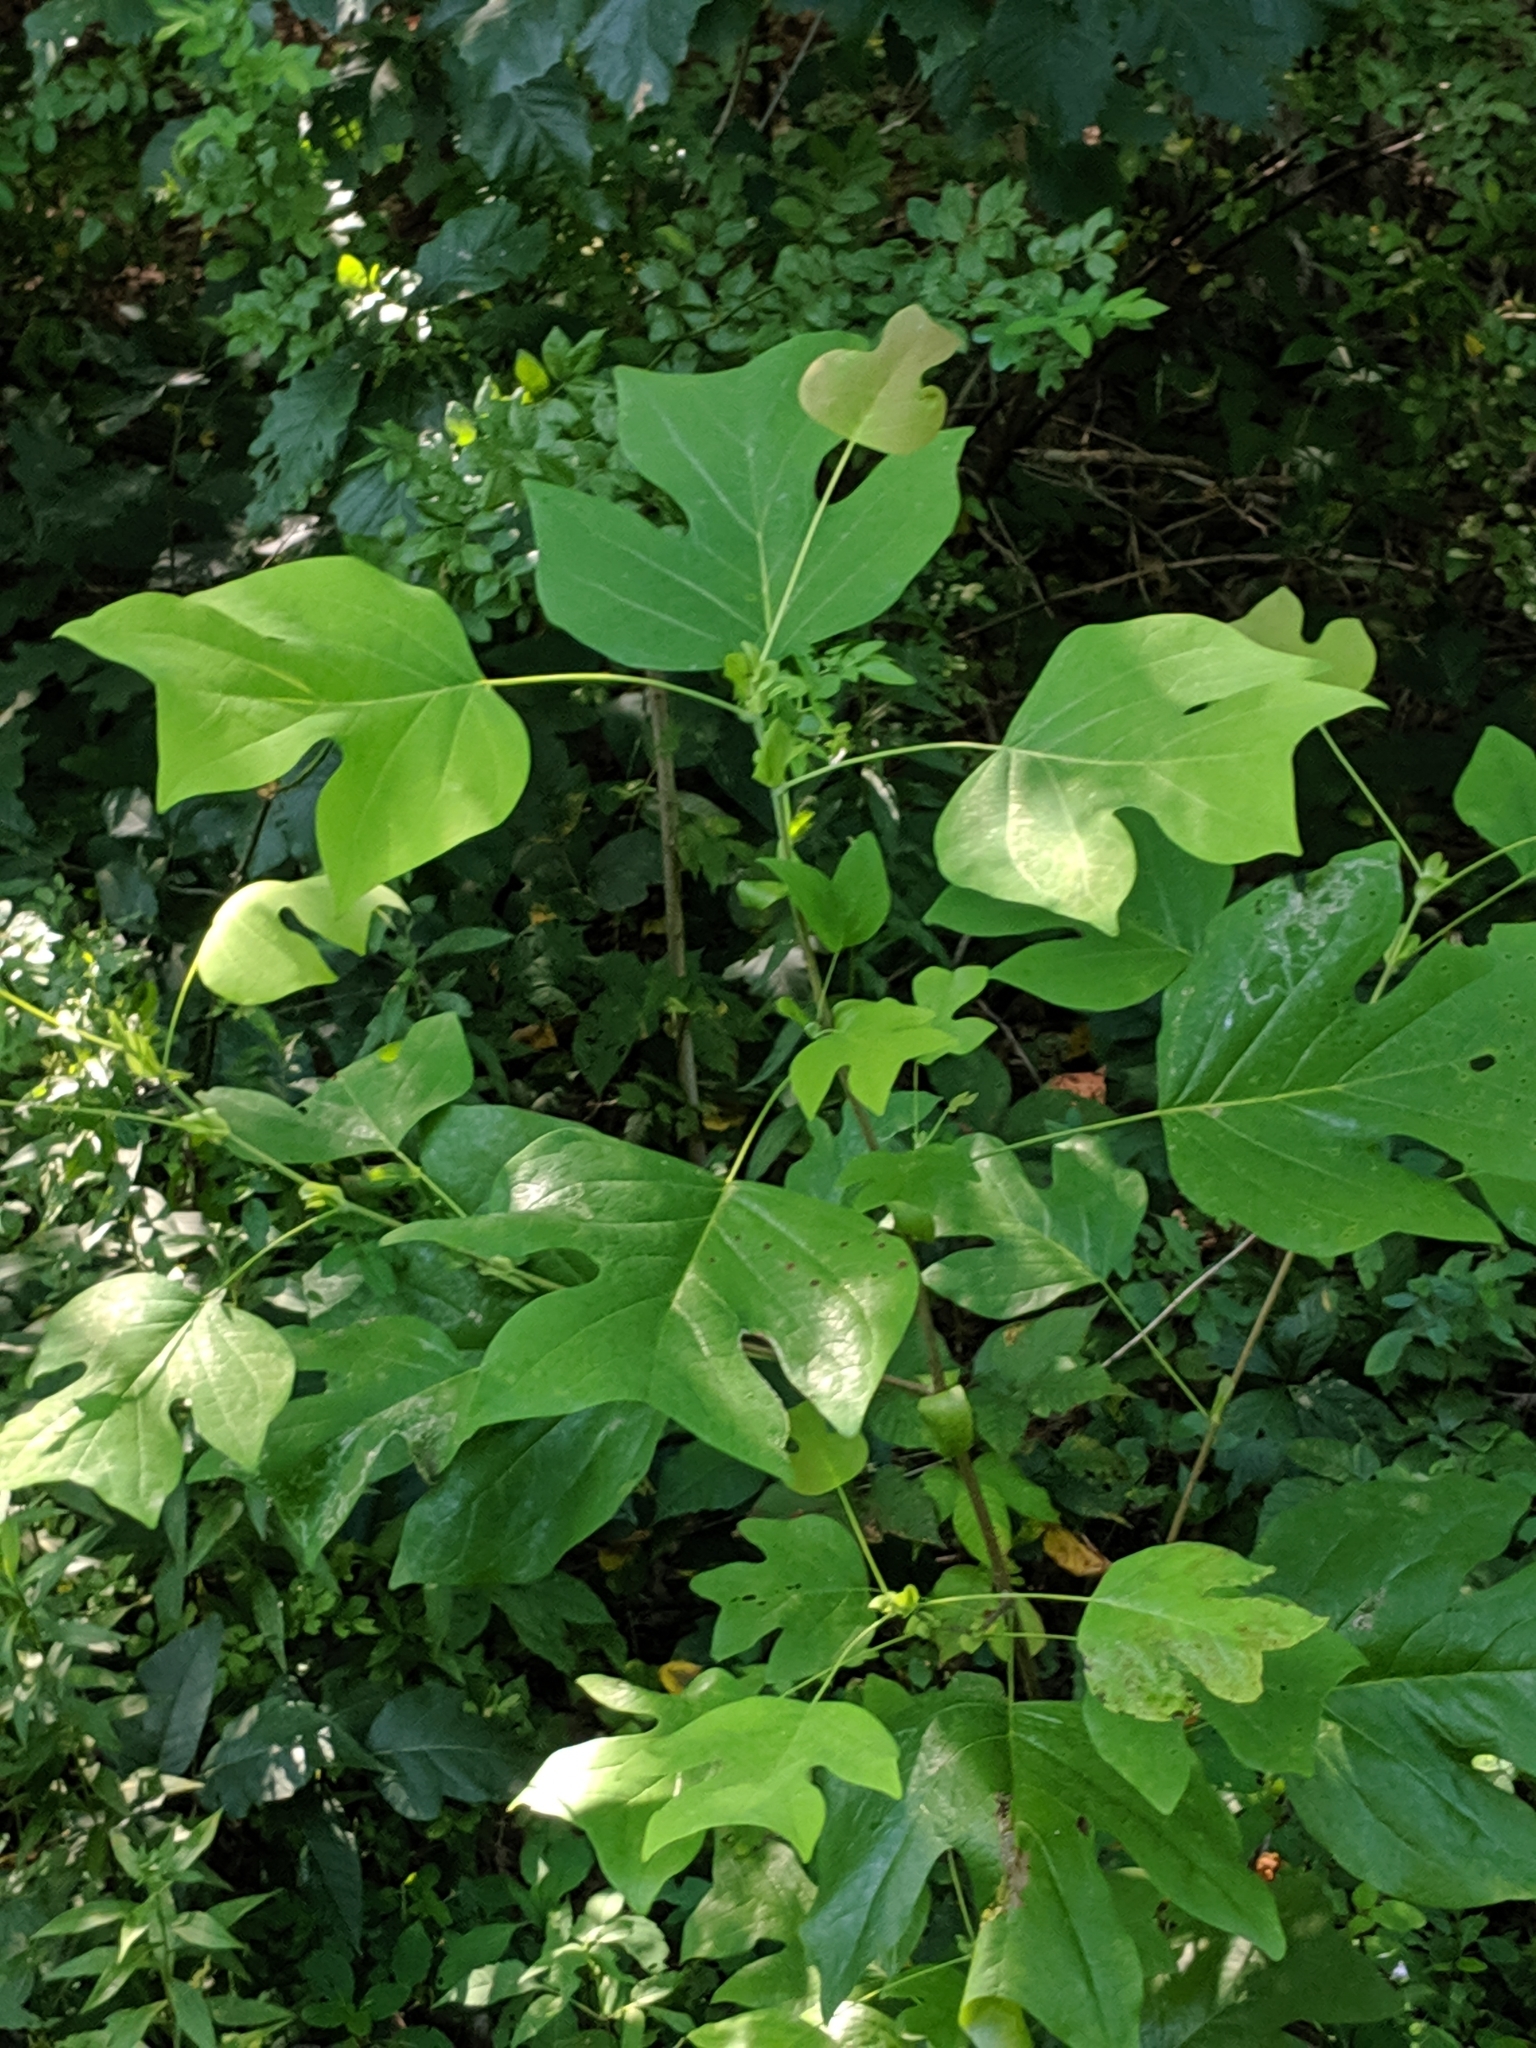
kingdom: Plantae
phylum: Tracheophyta
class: Magnoliopsida
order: Magnoliales
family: Magnoliaceae
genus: Liriodendron
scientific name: Liriodendron tulipifera
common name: Tulip tree
